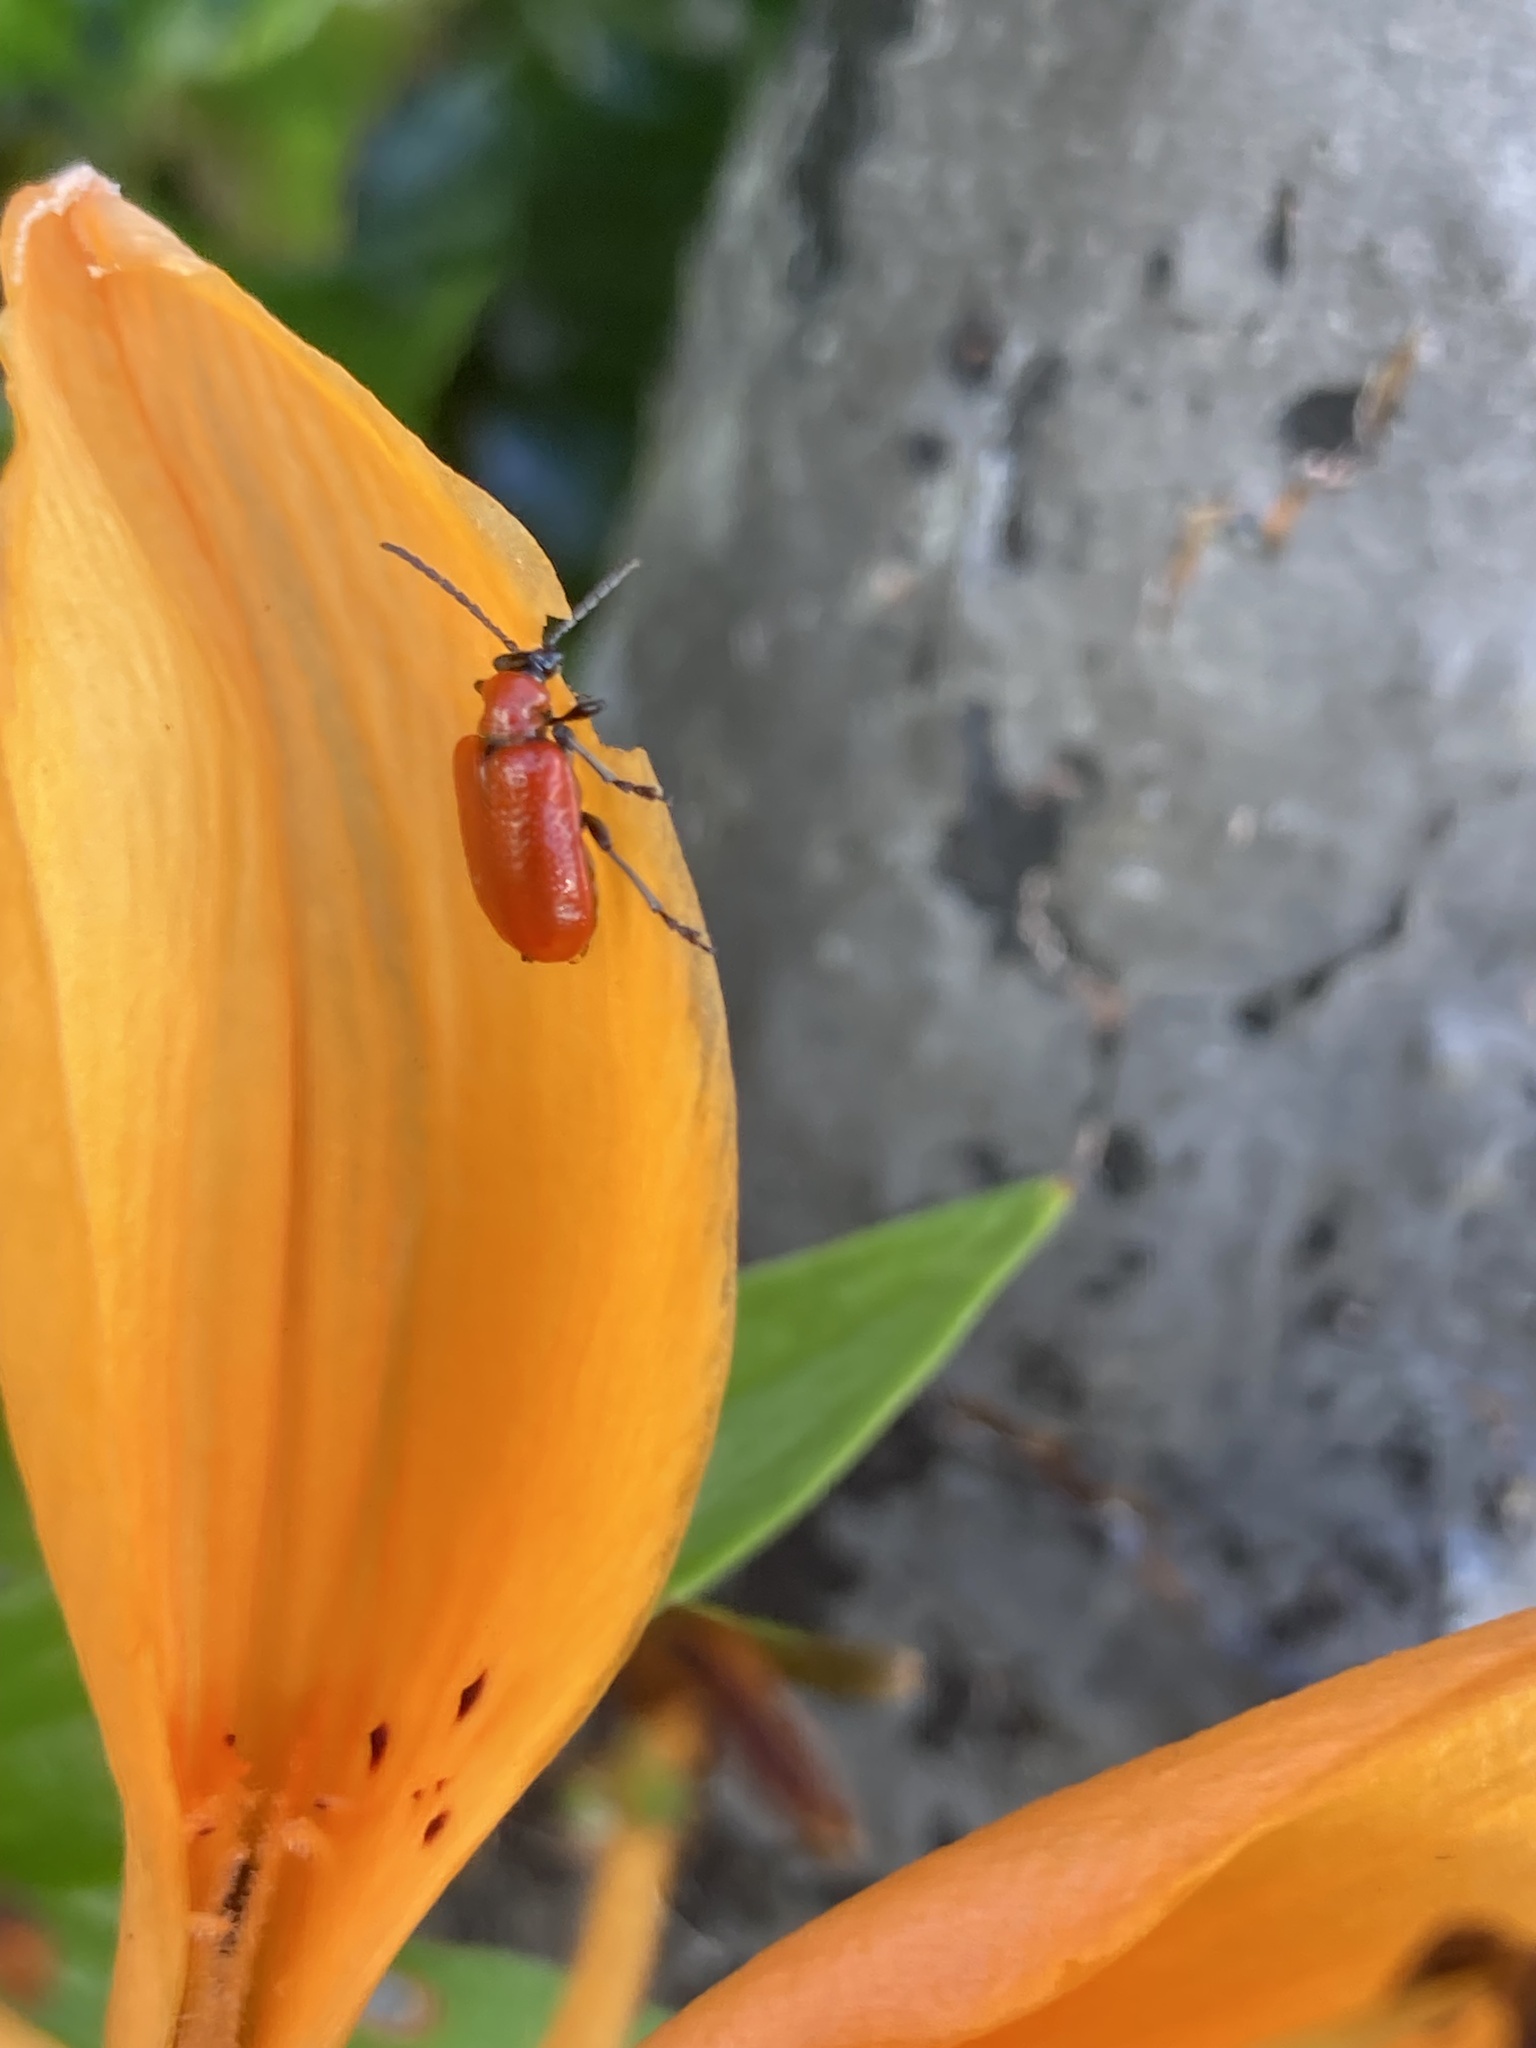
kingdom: Animalia
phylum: Arthropoda
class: Insecta
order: Coleoptera
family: Chrysomelidae
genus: Lilioceris
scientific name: Lilioceris lilii
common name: Lily beetle
